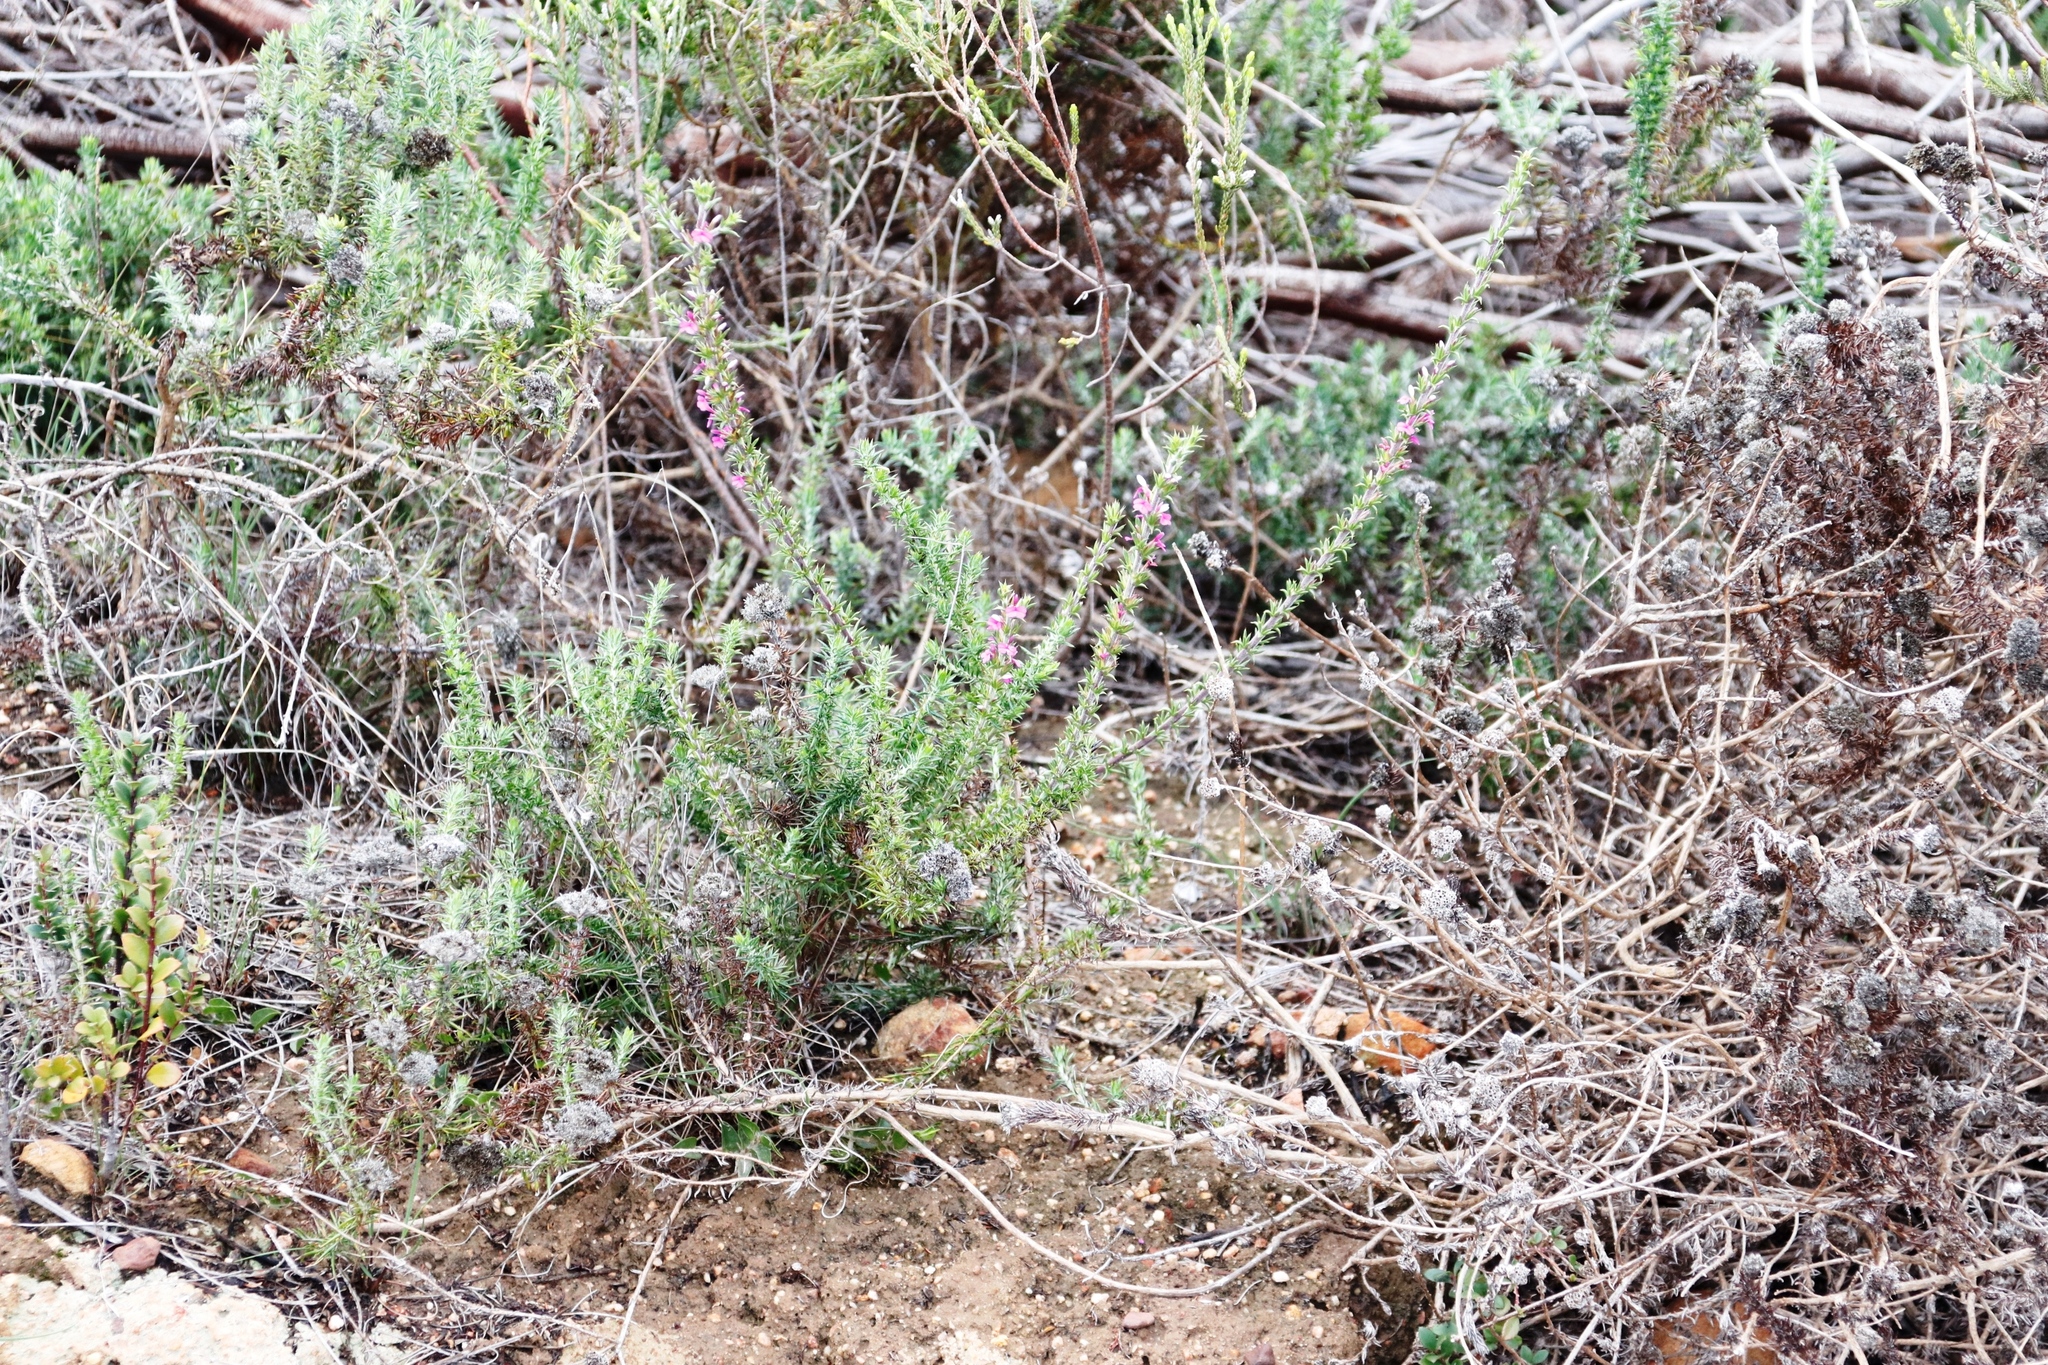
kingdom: Plantae
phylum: Tracheophyta
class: Magnoliopsida
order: Fabales
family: Polygalaceae
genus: Muraltia
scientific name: Muraltia heisteria
